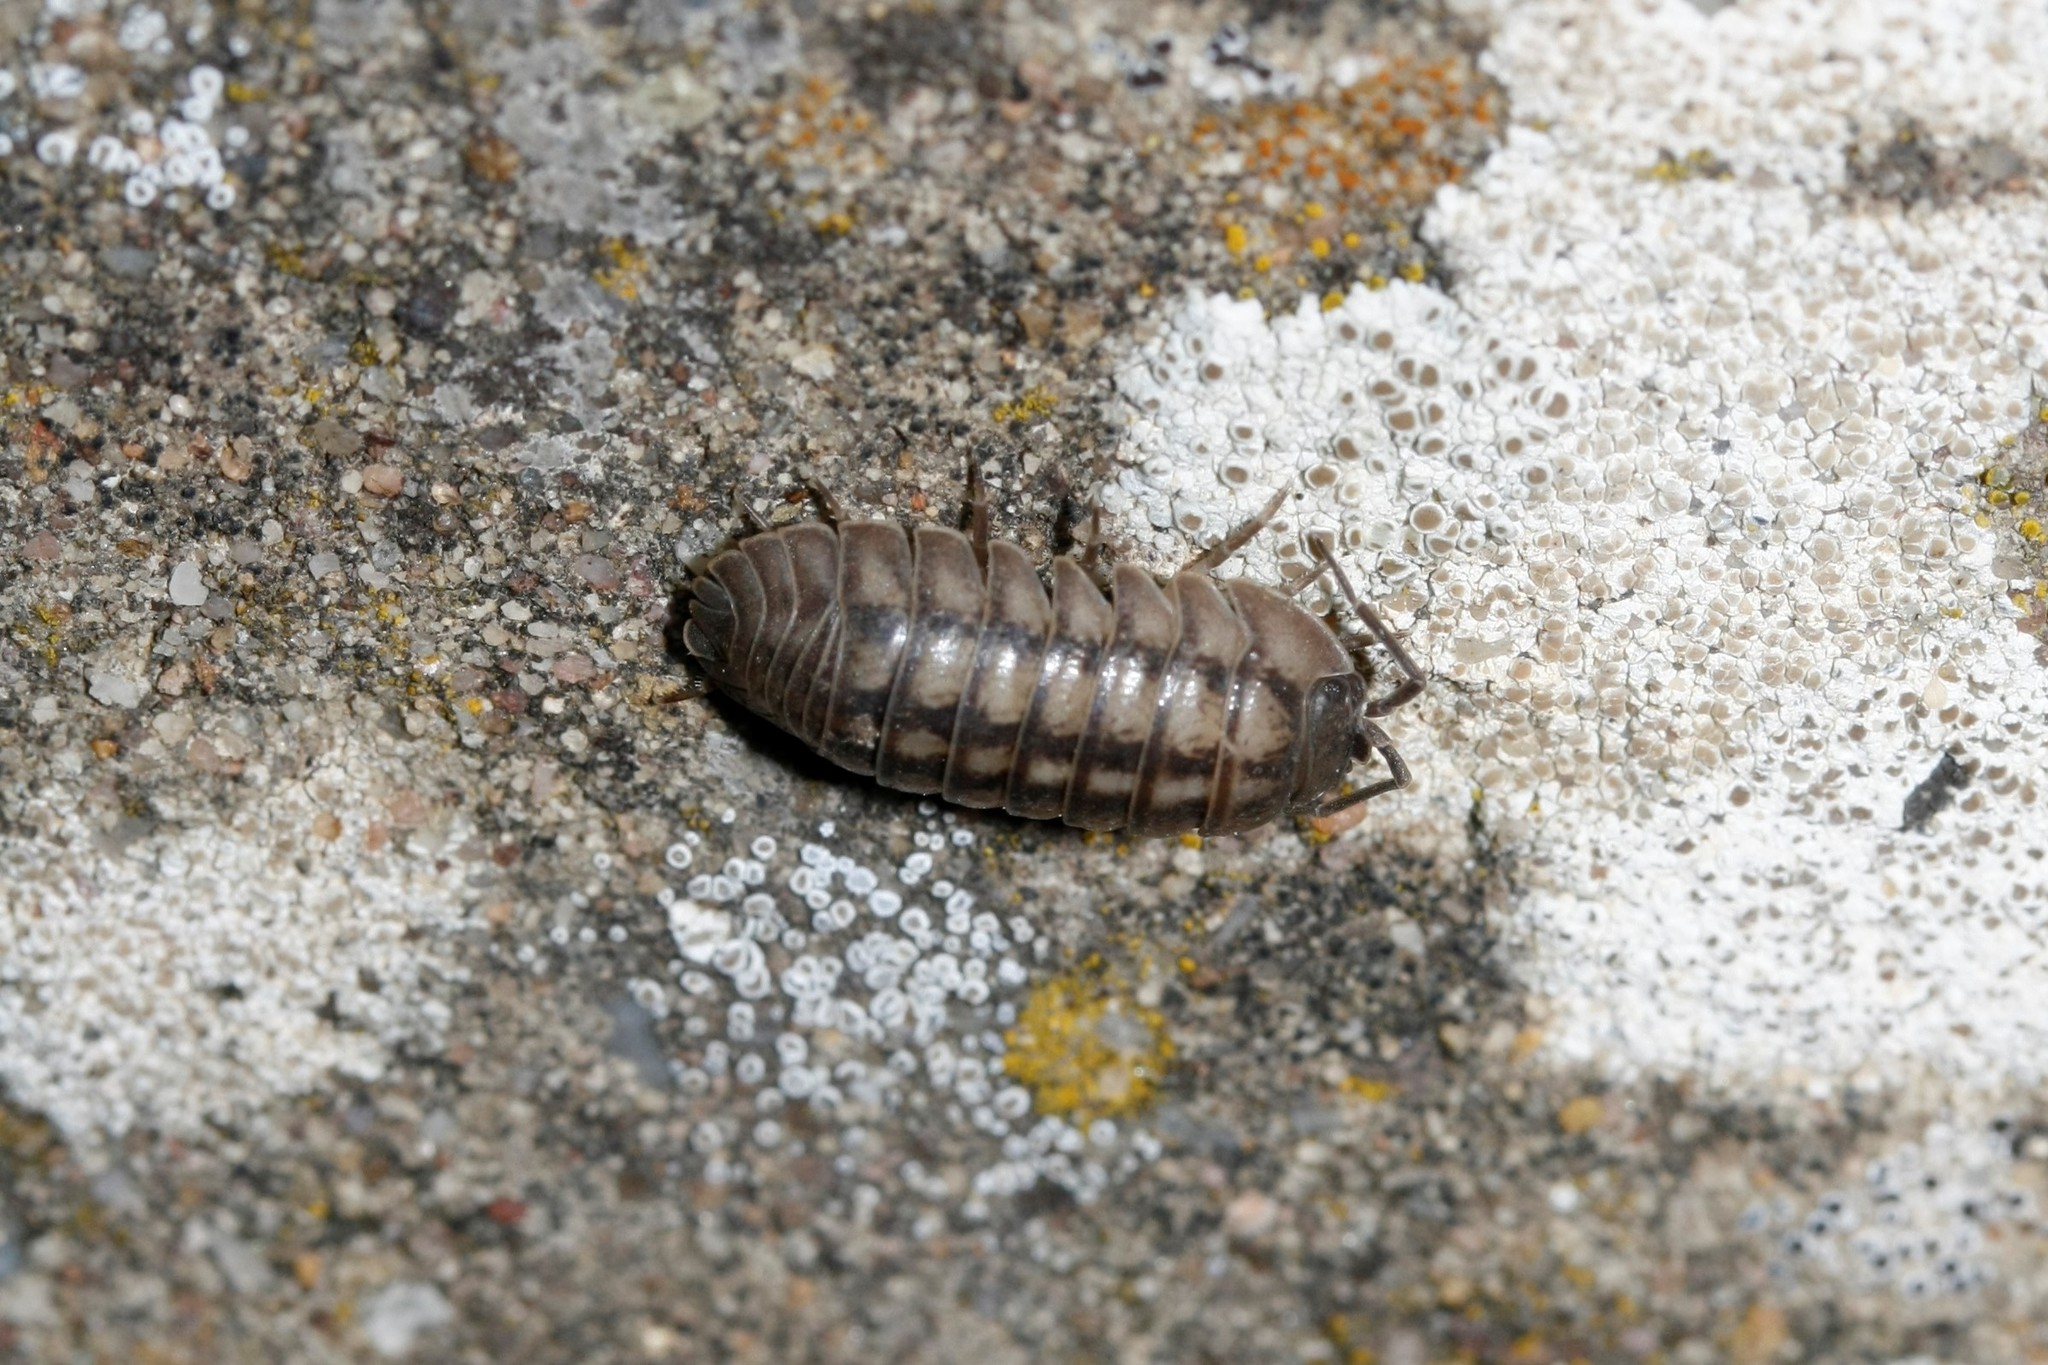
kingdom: Animalia
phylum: Arthropoda
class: Malacostraca
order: Isopoda
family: Armadillidiidae
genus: Armadillidium
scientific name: Armadillidium nasatum
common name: Isopod
